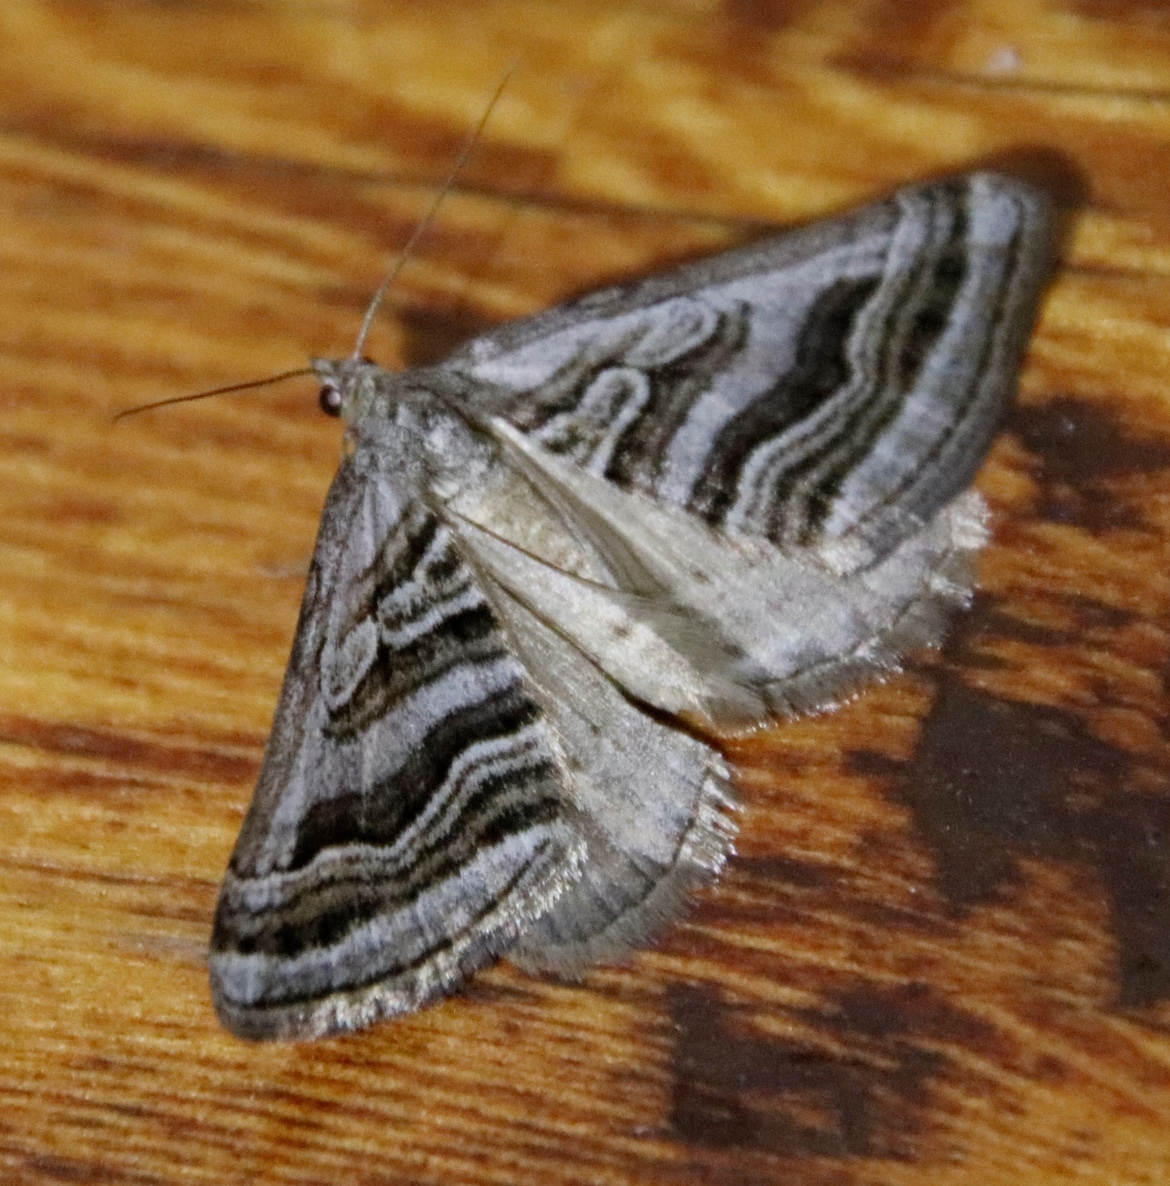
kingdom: Animalia
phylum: Arthropoda
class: Insecta
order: Lepidoptera
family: Geometridae
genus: Scotopteryx
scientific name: Scotopteryx cryptospilata
